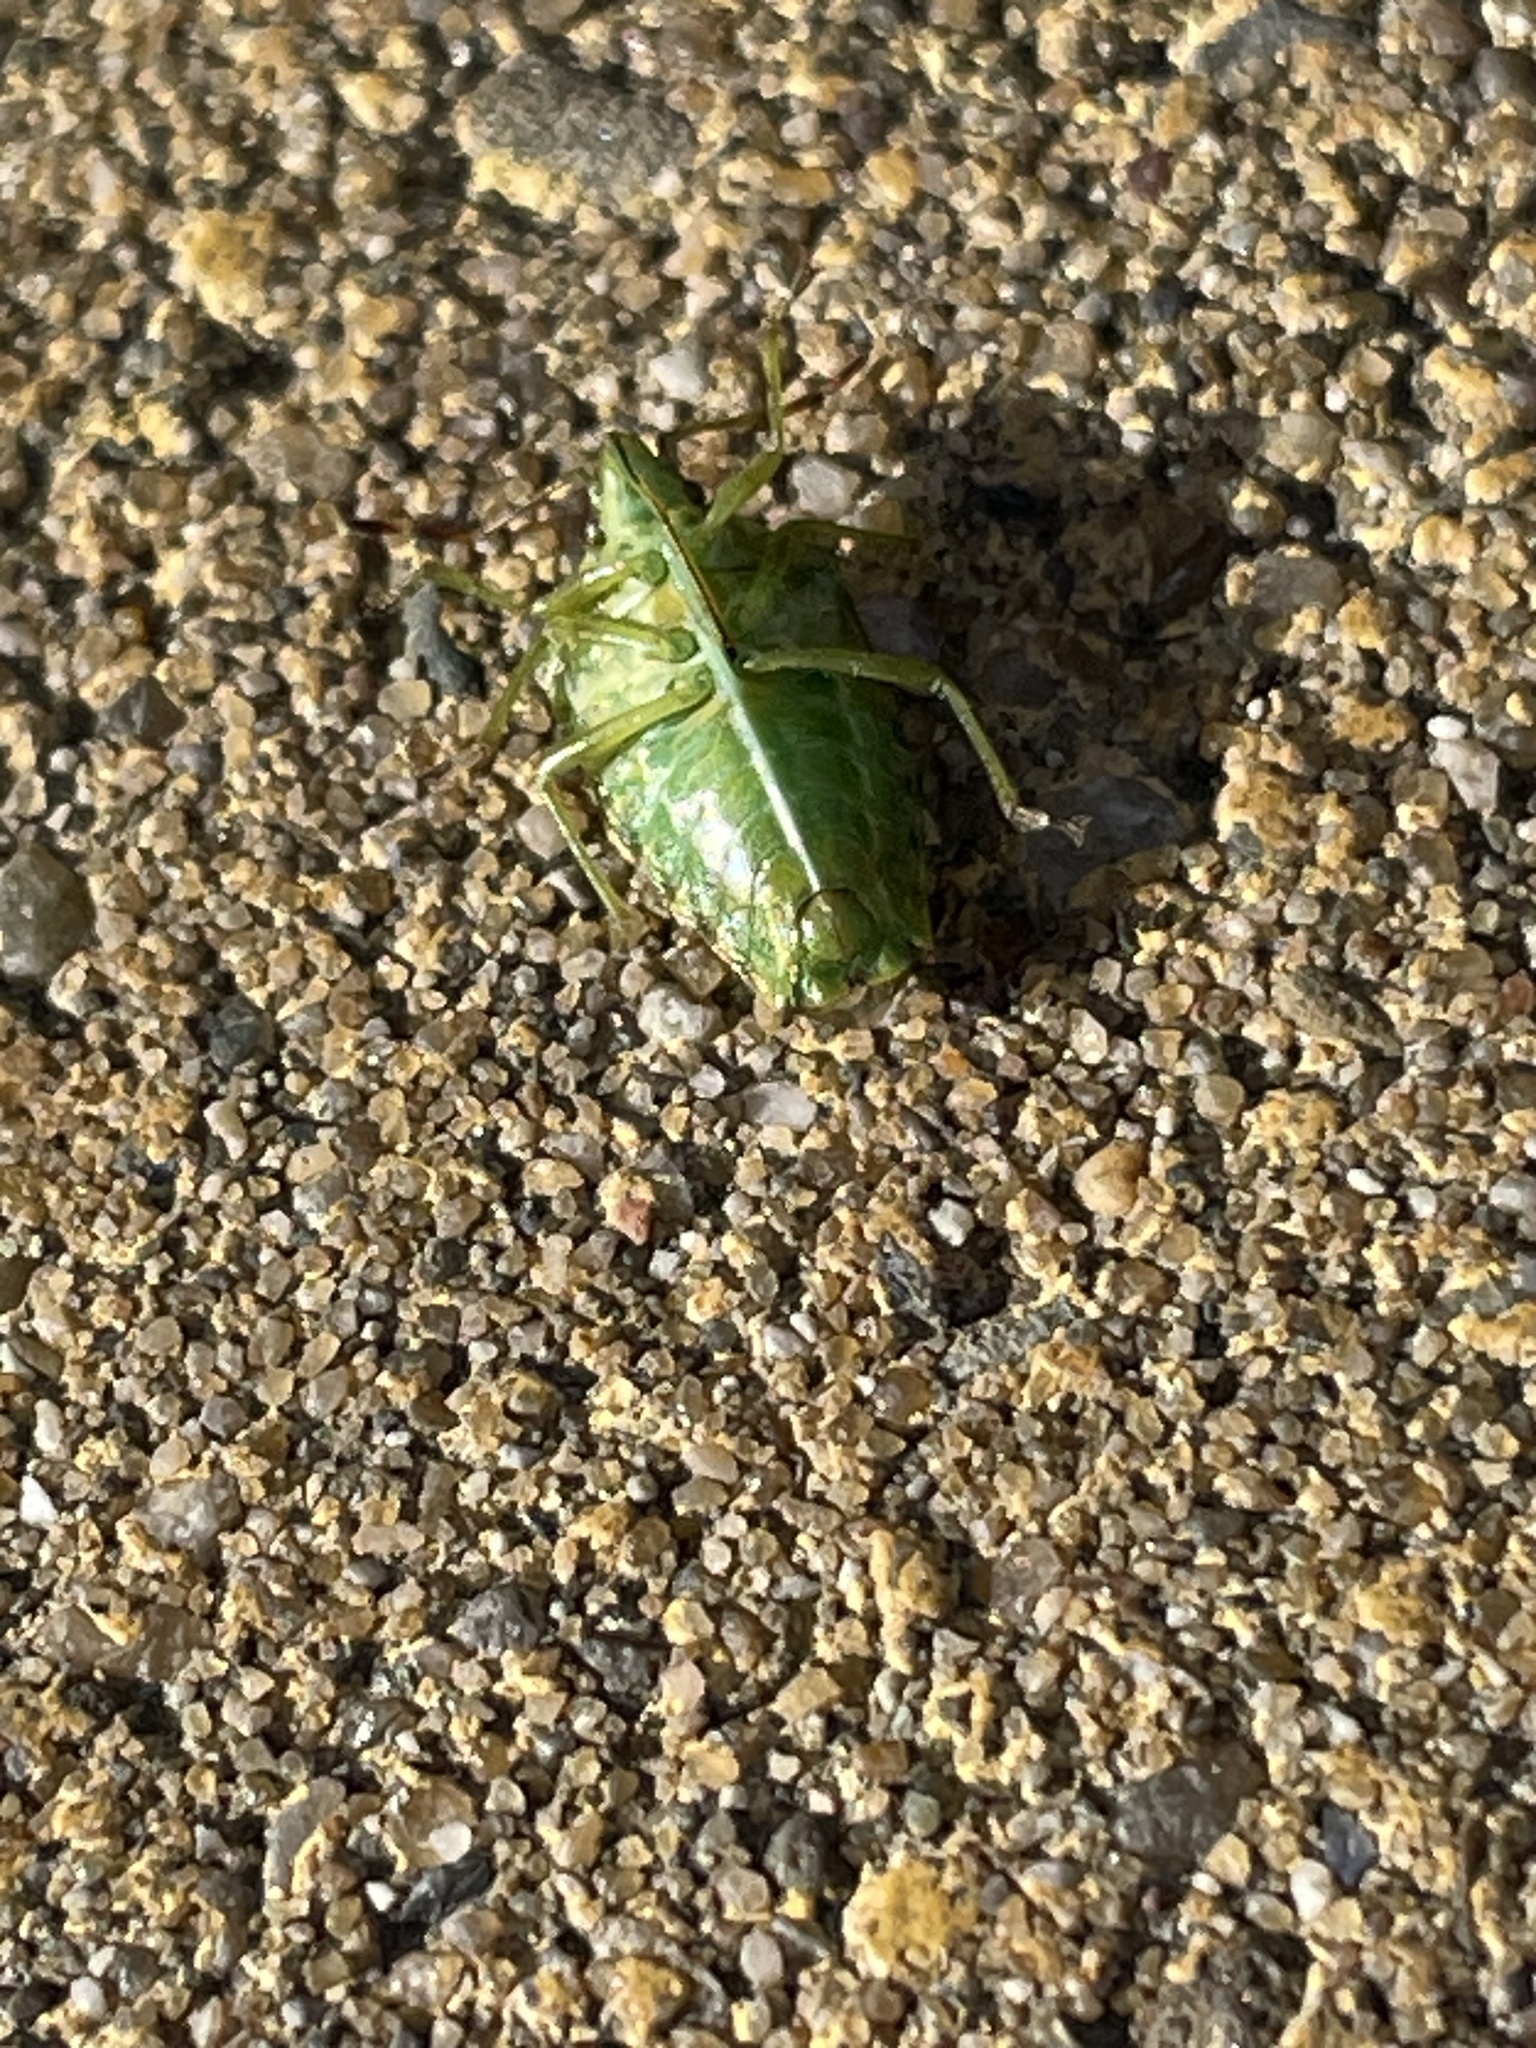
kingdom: Animalia
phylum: Arthropoda
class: Insecta
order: Hemiptera
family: Acanthosomatidae
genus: Cyphostethus
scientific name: Cyphostethus tristriatus
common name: Juniper shieldbug
